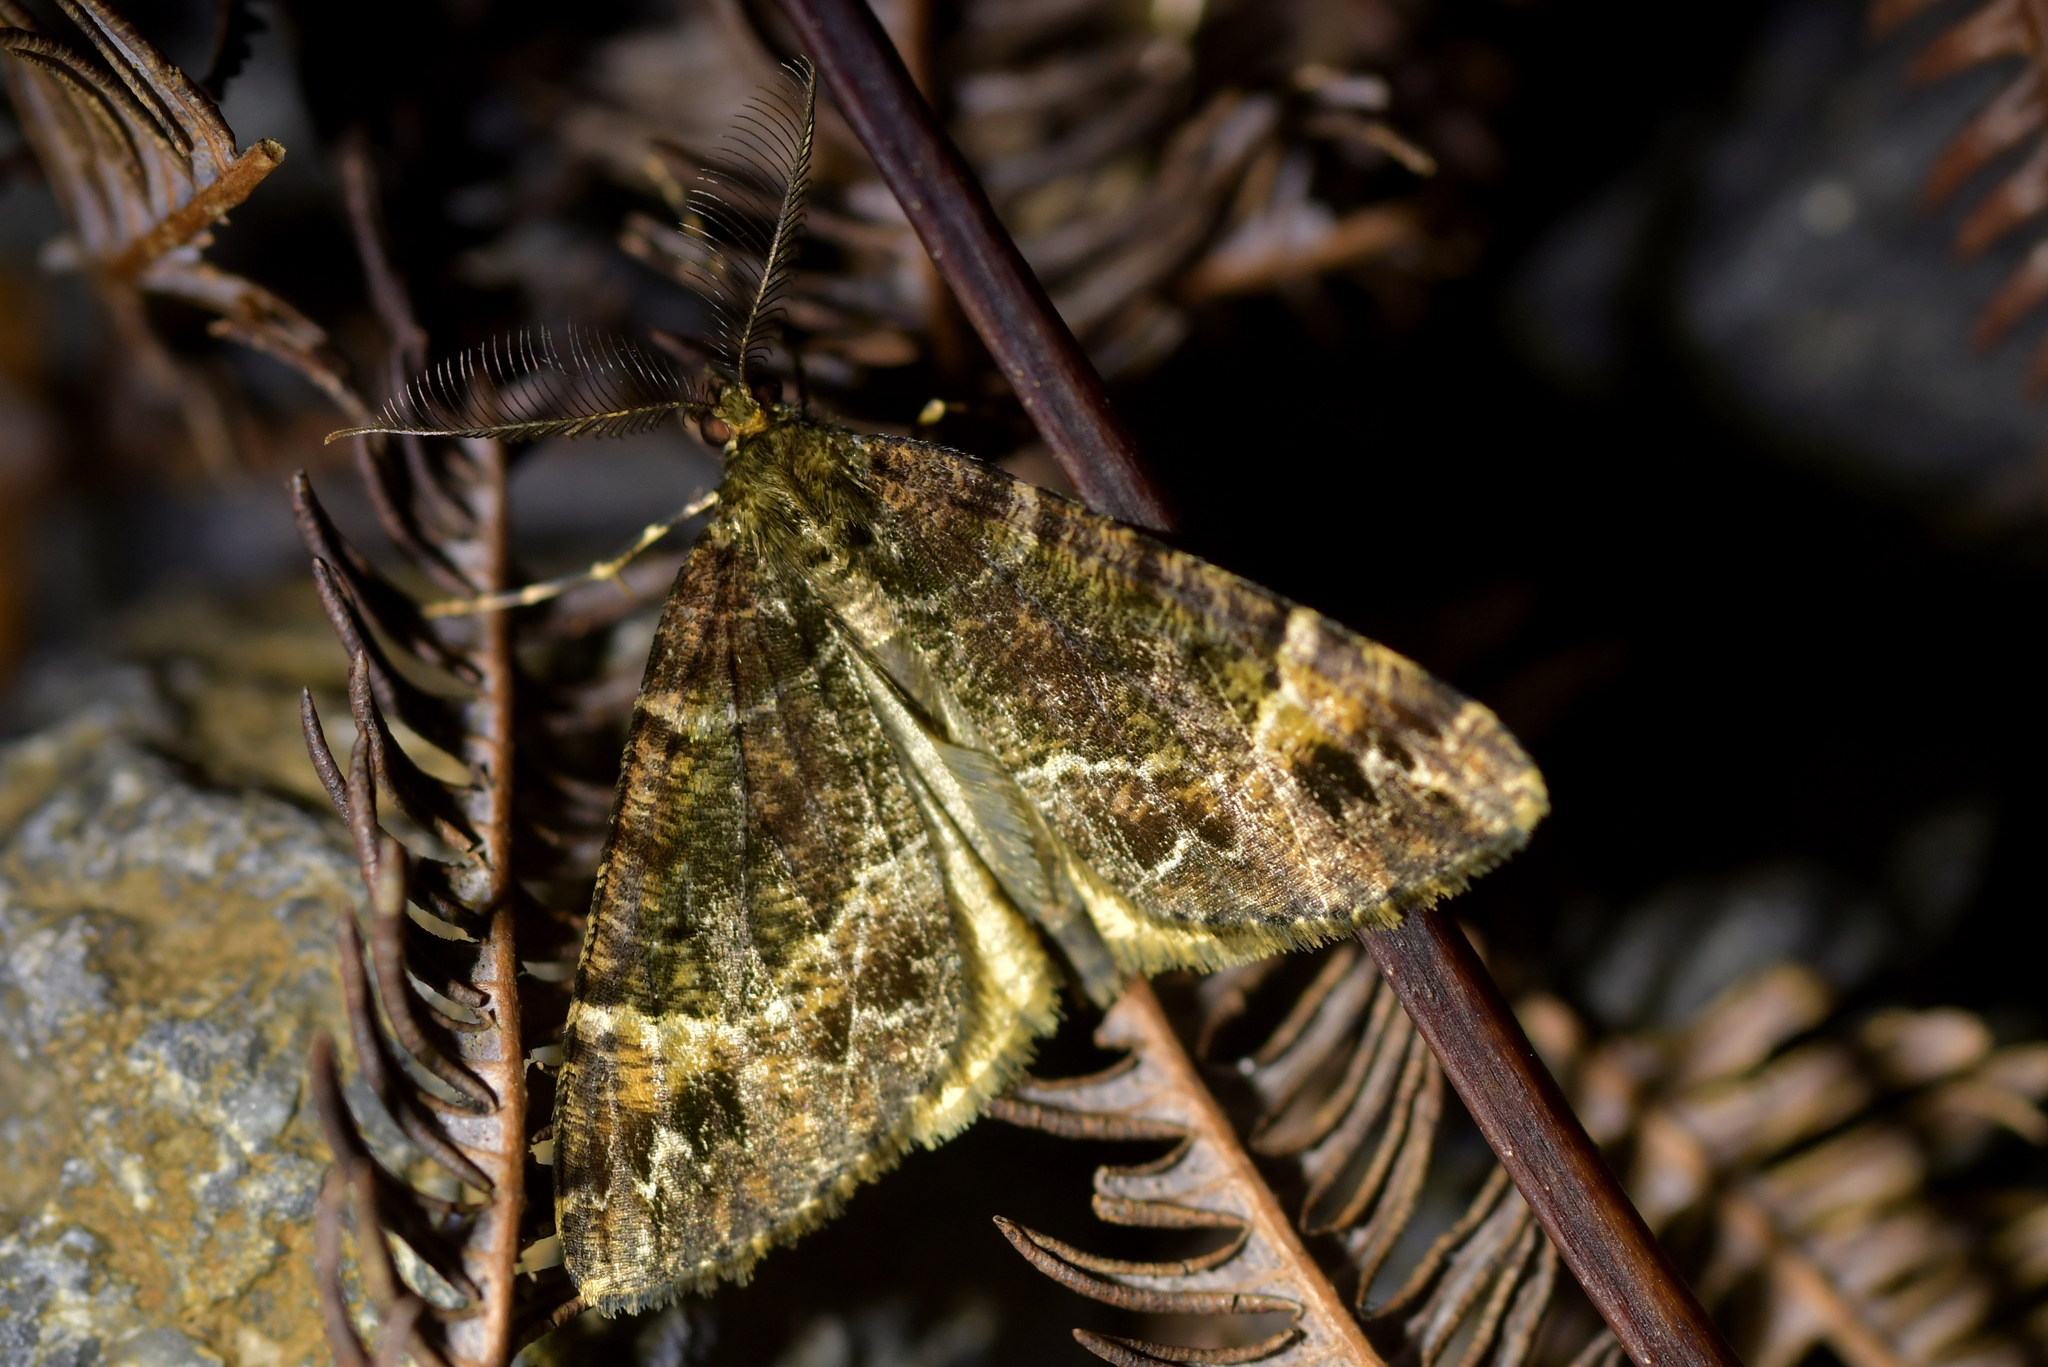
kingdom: Animalia
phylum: Arthropoda
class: Insecta
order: Lepidoptera
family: Geometridae
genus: Pseudocoremia
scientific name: Pseudocoremia productata
